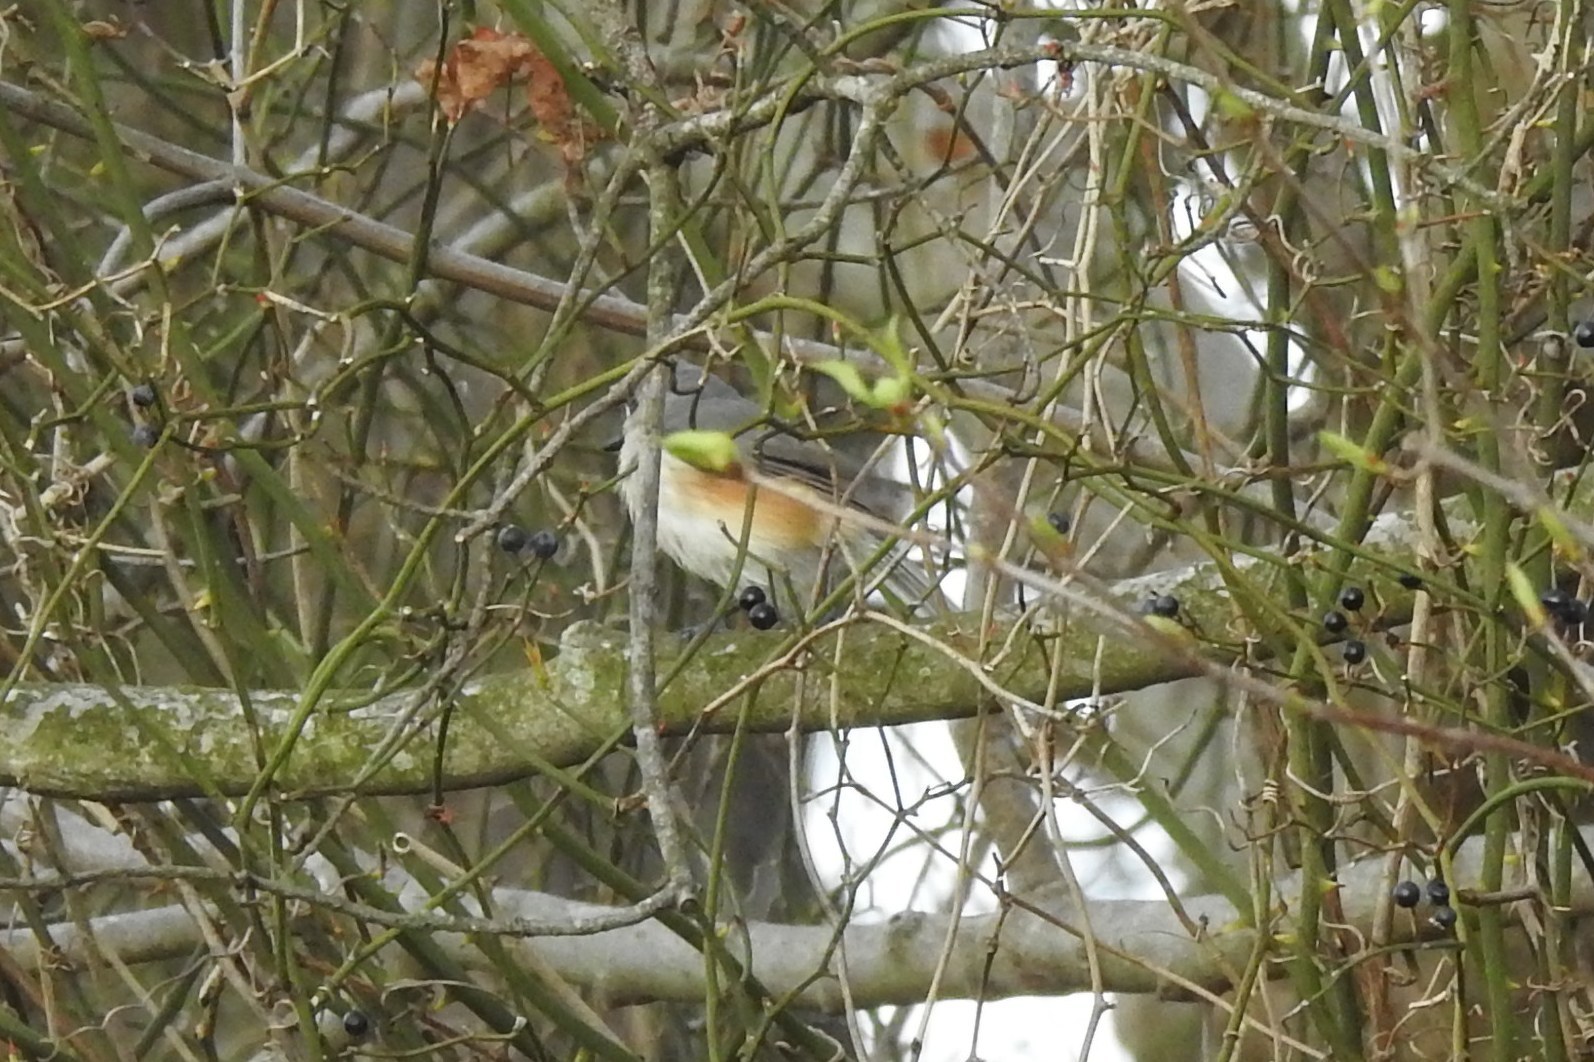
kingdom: Animalia
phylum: Chordata
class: Aves
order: Passeriformes
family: Paridae
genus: Baeolophus
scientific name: Baeolophus bicolor
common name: Tufted titmouse
